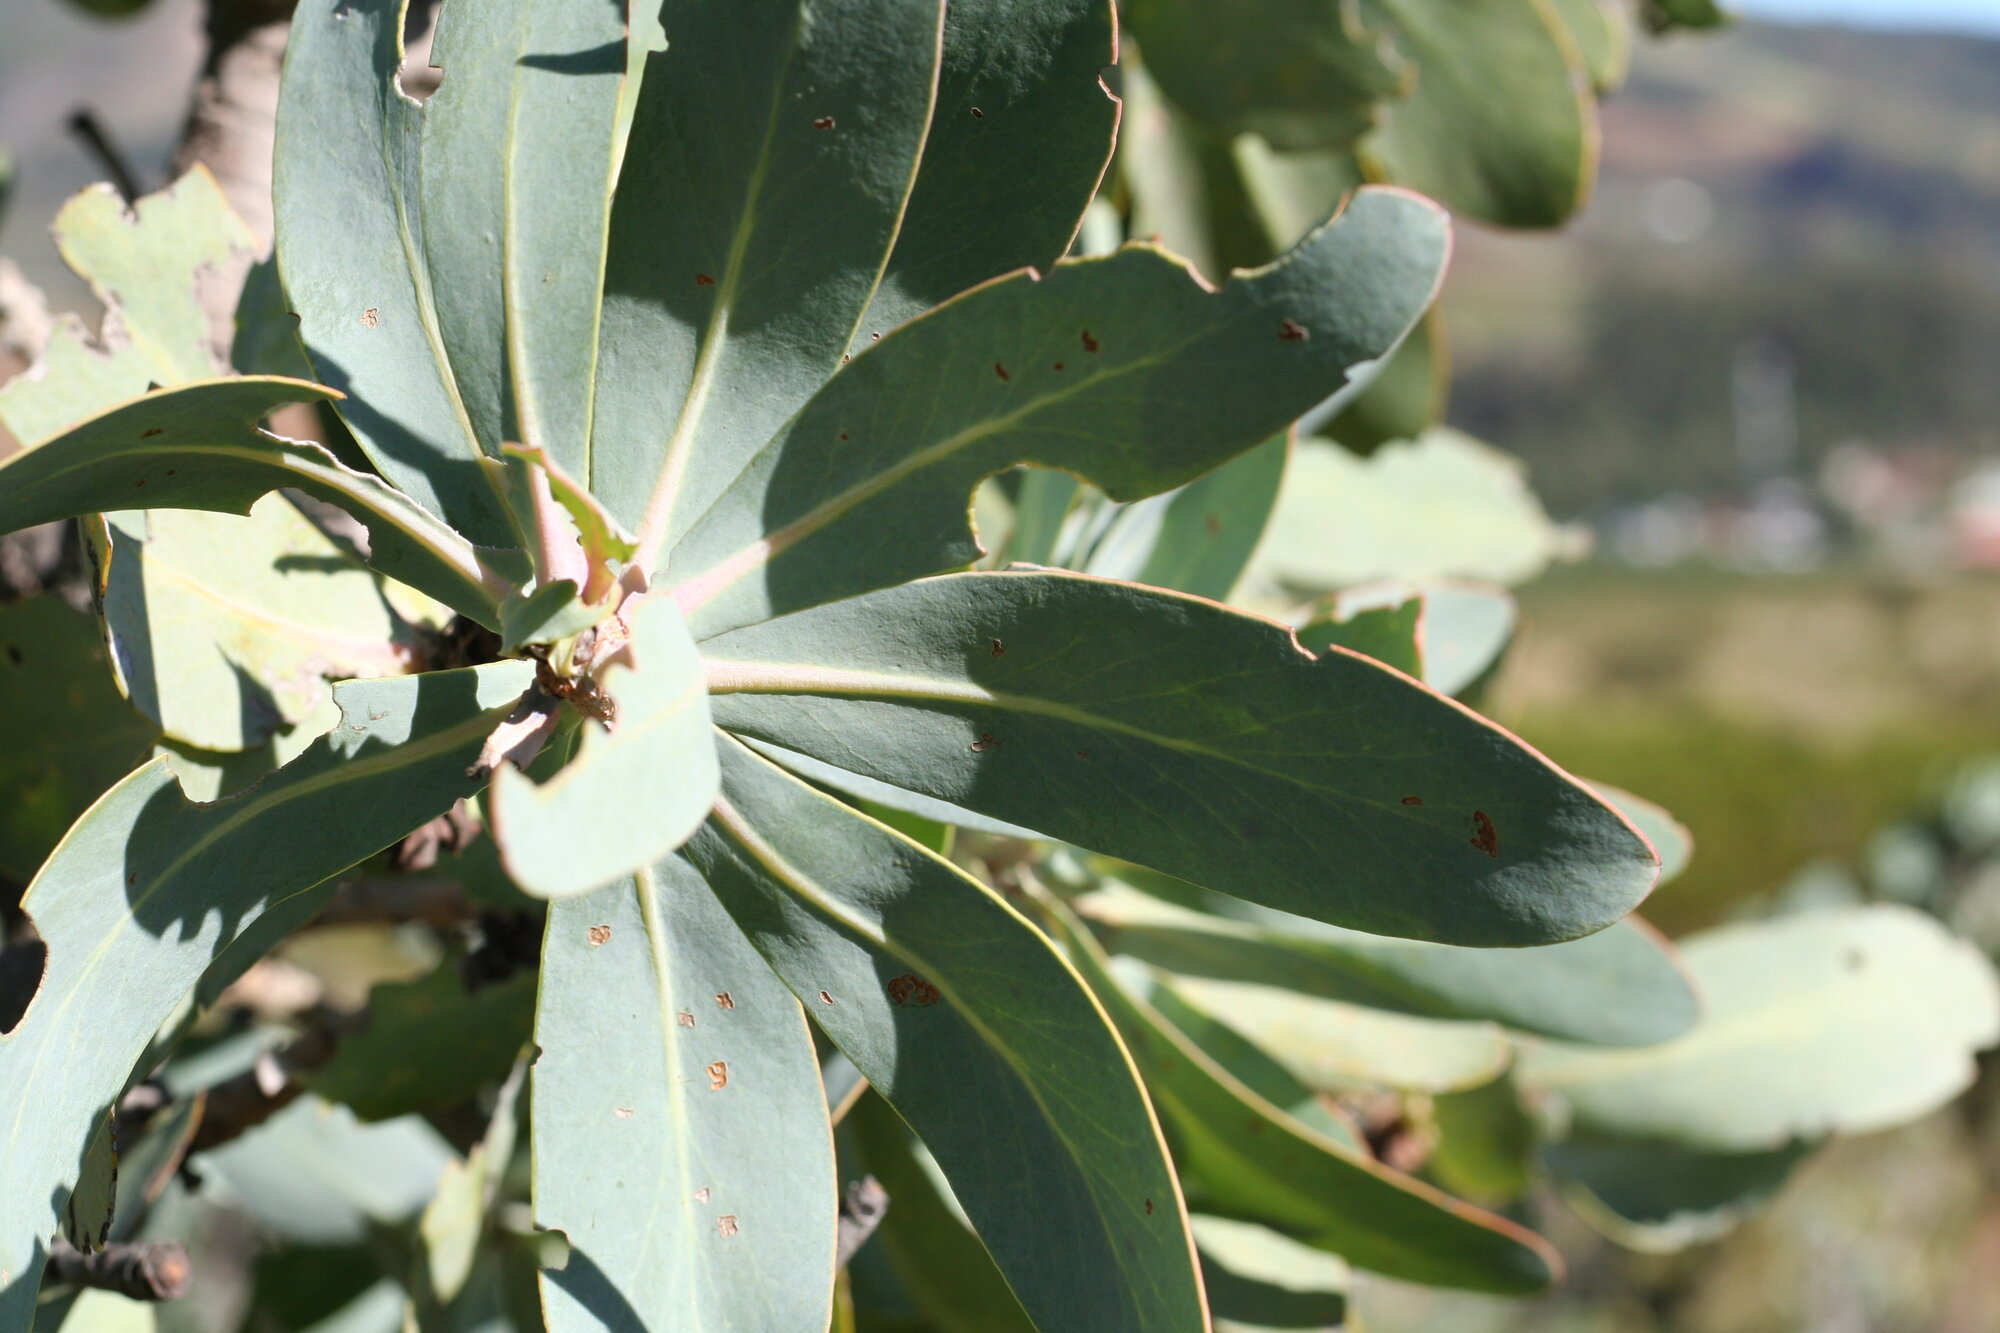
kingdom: Plantae
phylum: Tracheophyta
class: Magnoliopsida
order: Proteales
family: Proteaceae
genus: Protea
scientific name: Protea nitida
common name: Tree protea
